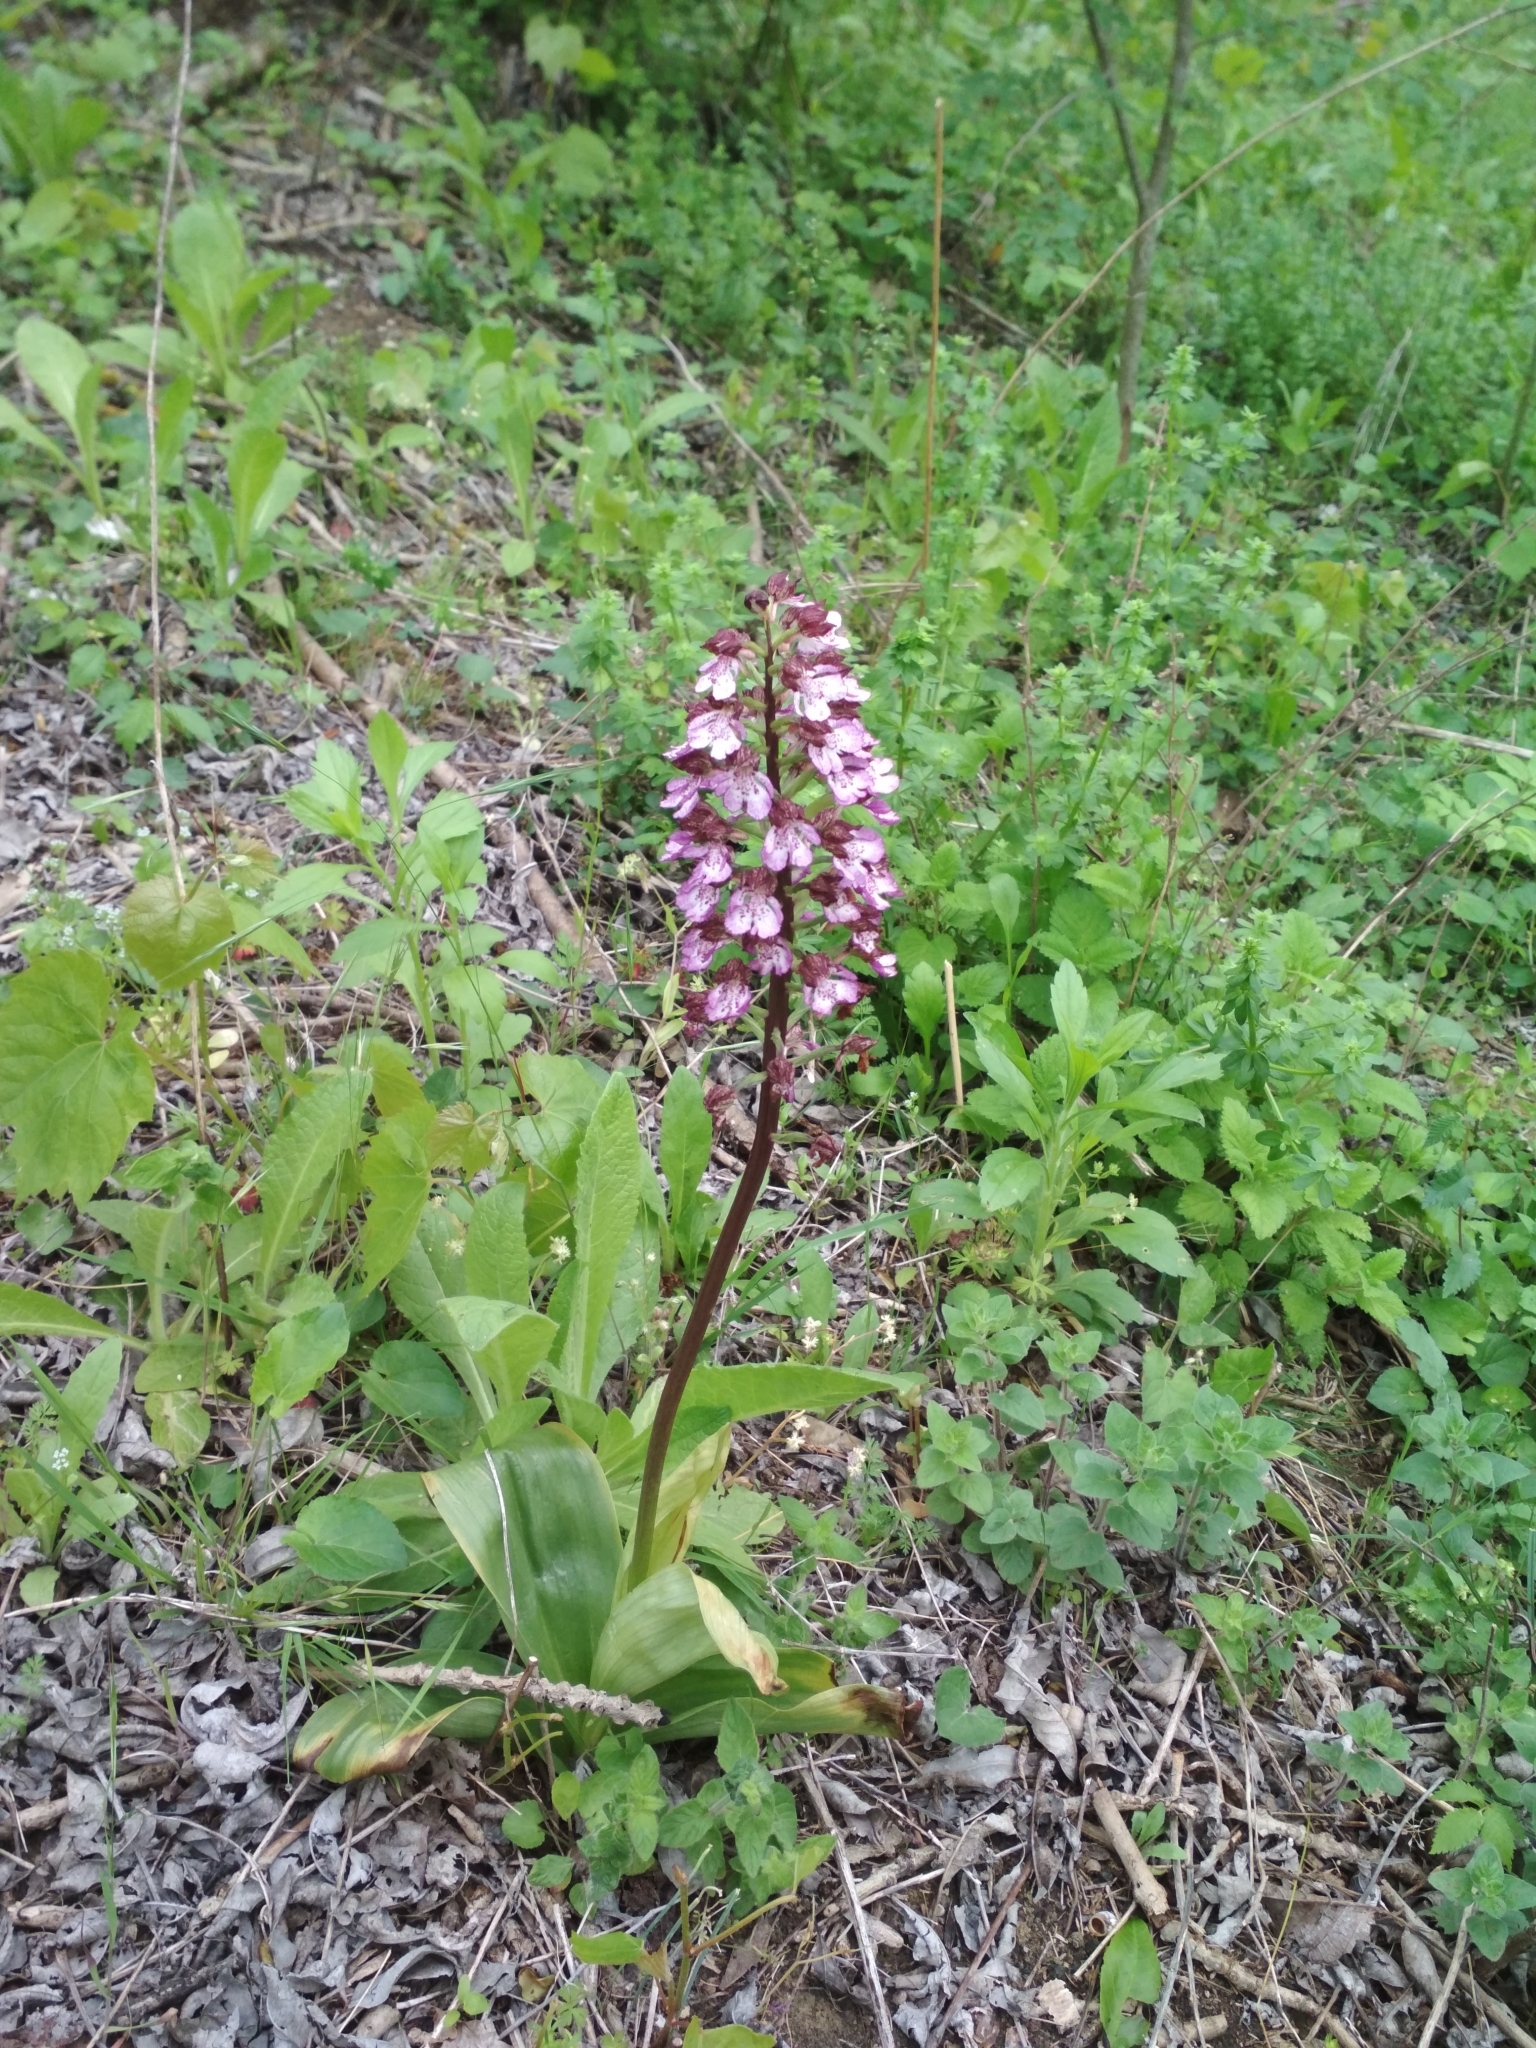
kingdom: Plantae
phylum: Tracheophyta
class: Liliopsida
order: Asparagales
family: Orchidaceae
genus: Orchis
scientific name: Orchis purpurea
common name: Lady orchid
